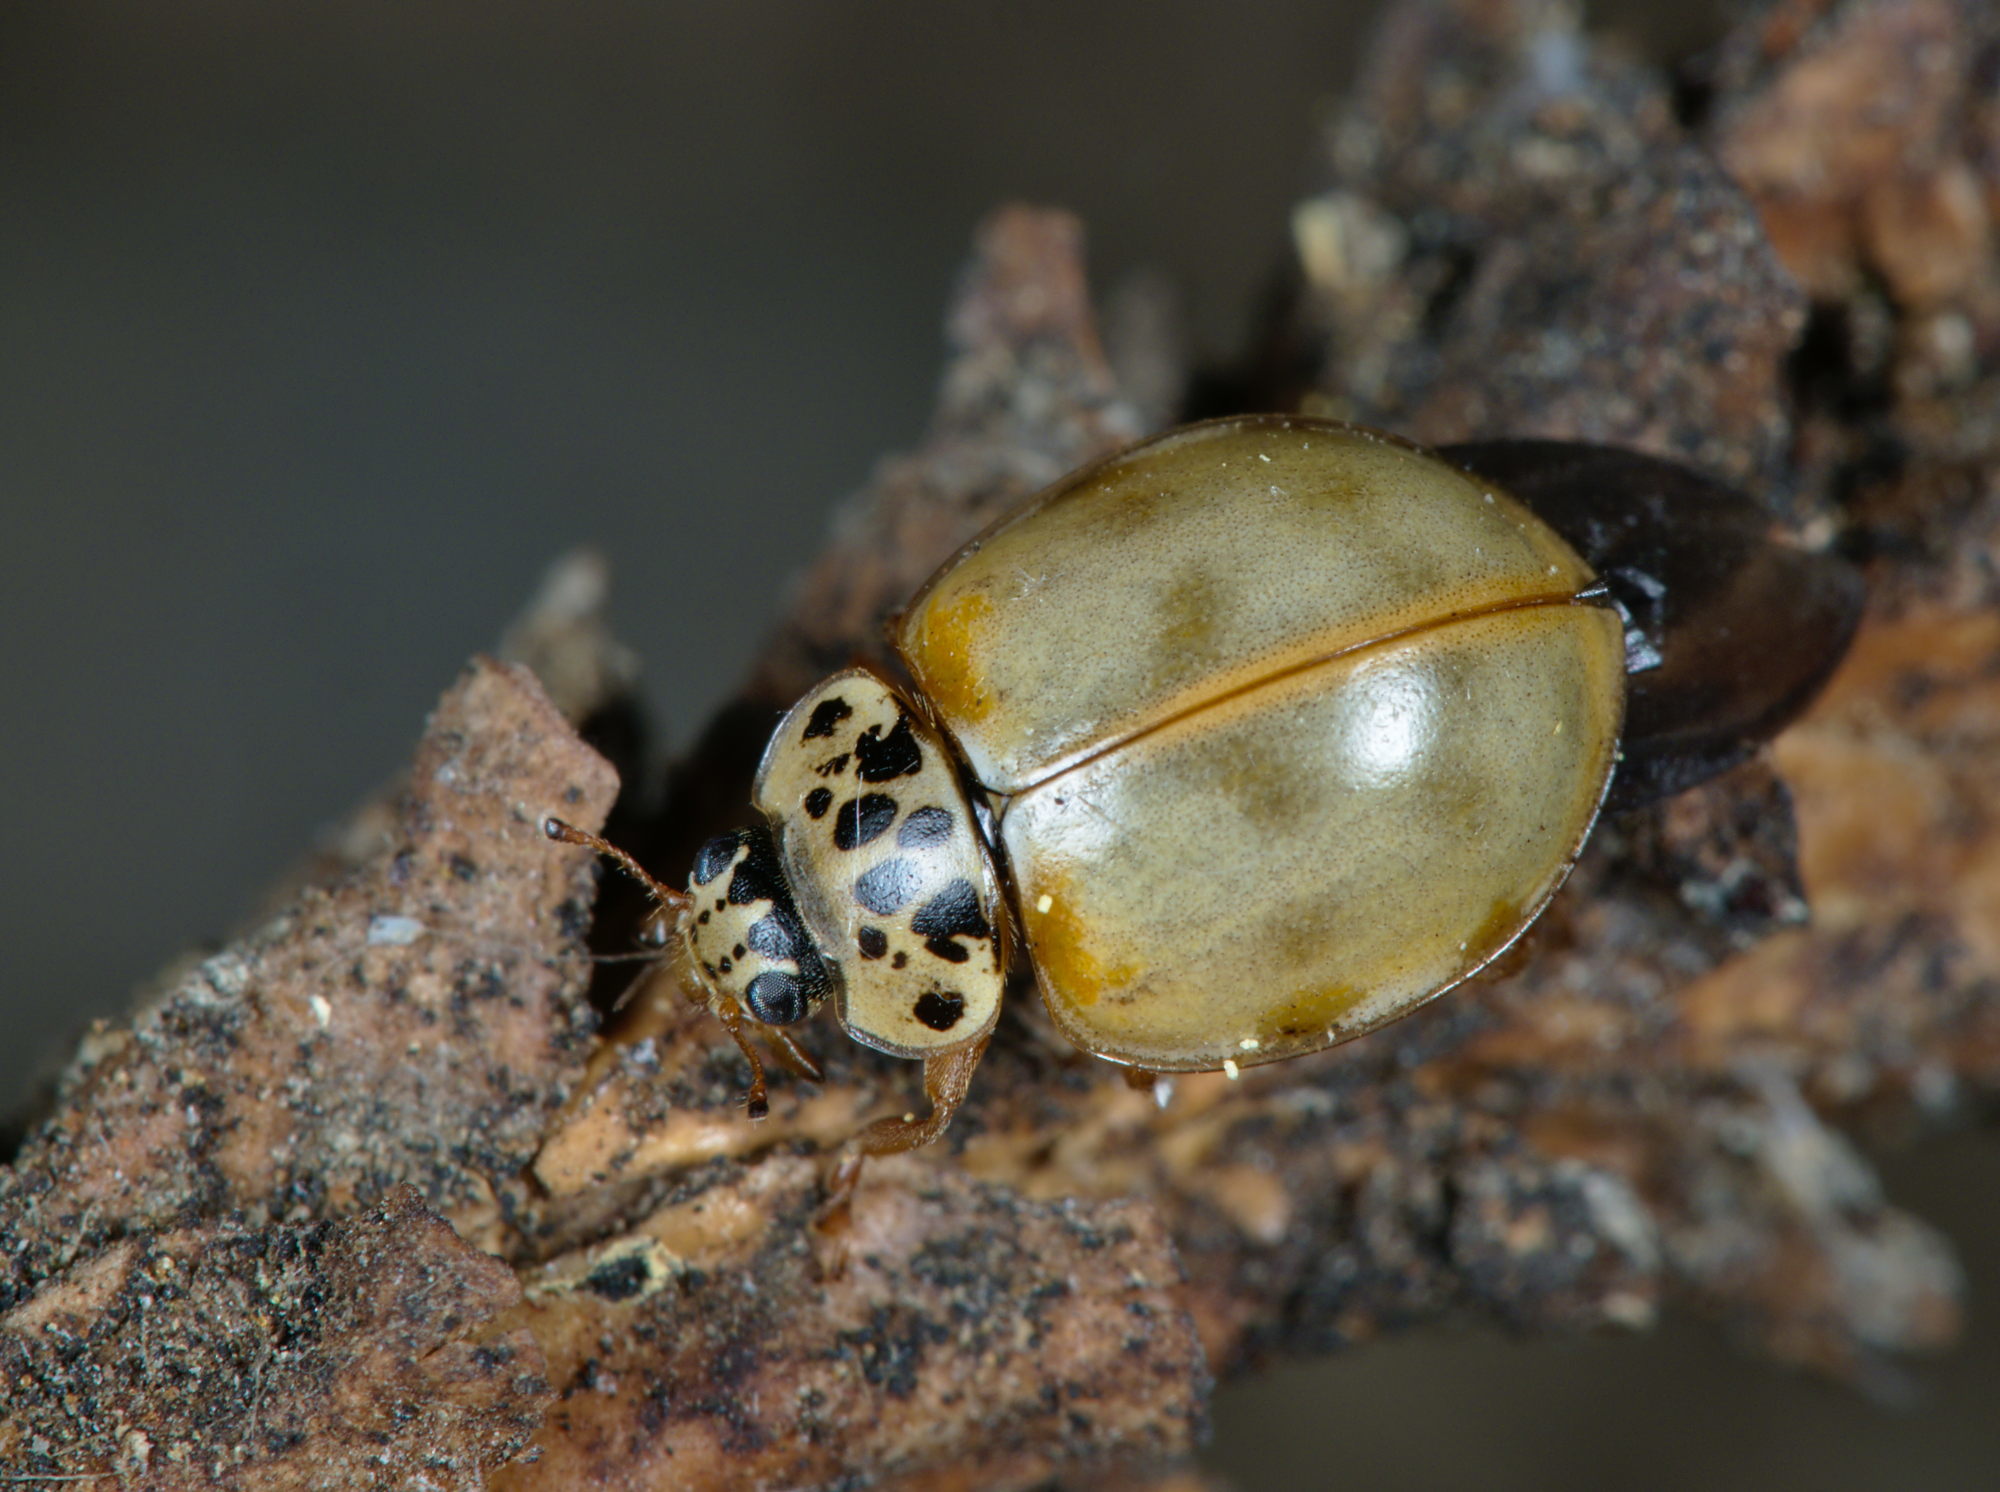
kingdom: Animalia
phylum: Arthropoda
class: Insecta
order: Coleoptera
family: Coccinellidae
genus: Harmonia
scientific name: Harmonia quadripunctata
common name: Cream-streaked ladybird
